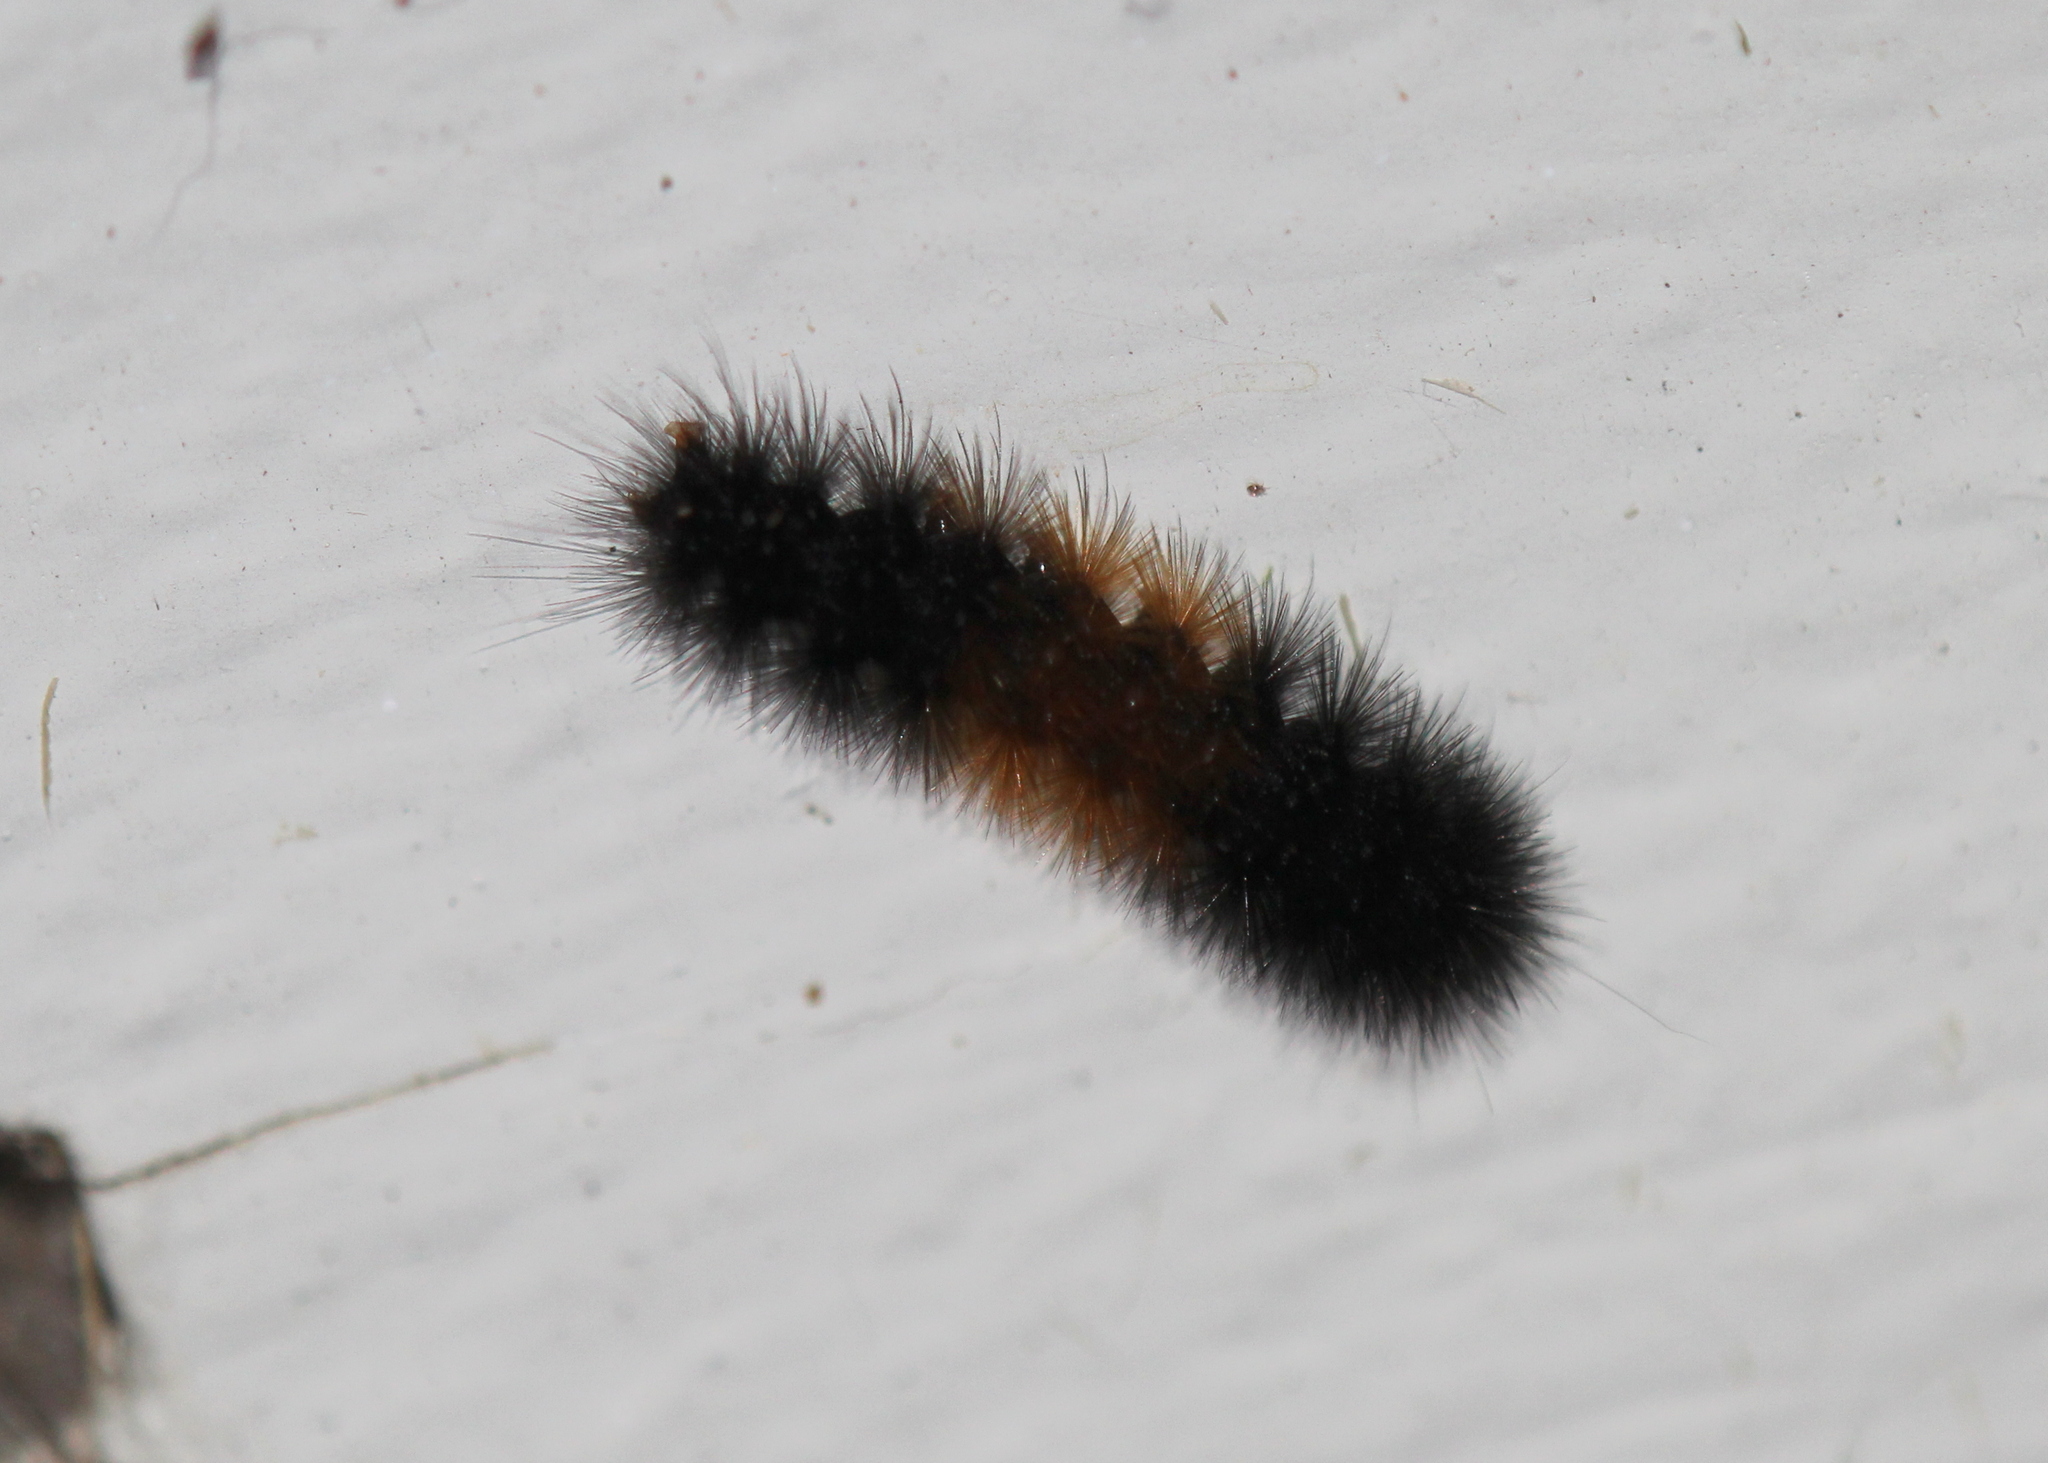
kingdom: Animalia
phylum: Arthropoda
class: Insecta
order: Lepidoptera
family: Erebidae
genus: Pyrrharctia
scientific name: Pyrrharctia isabella
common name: Isabella tiger moth
